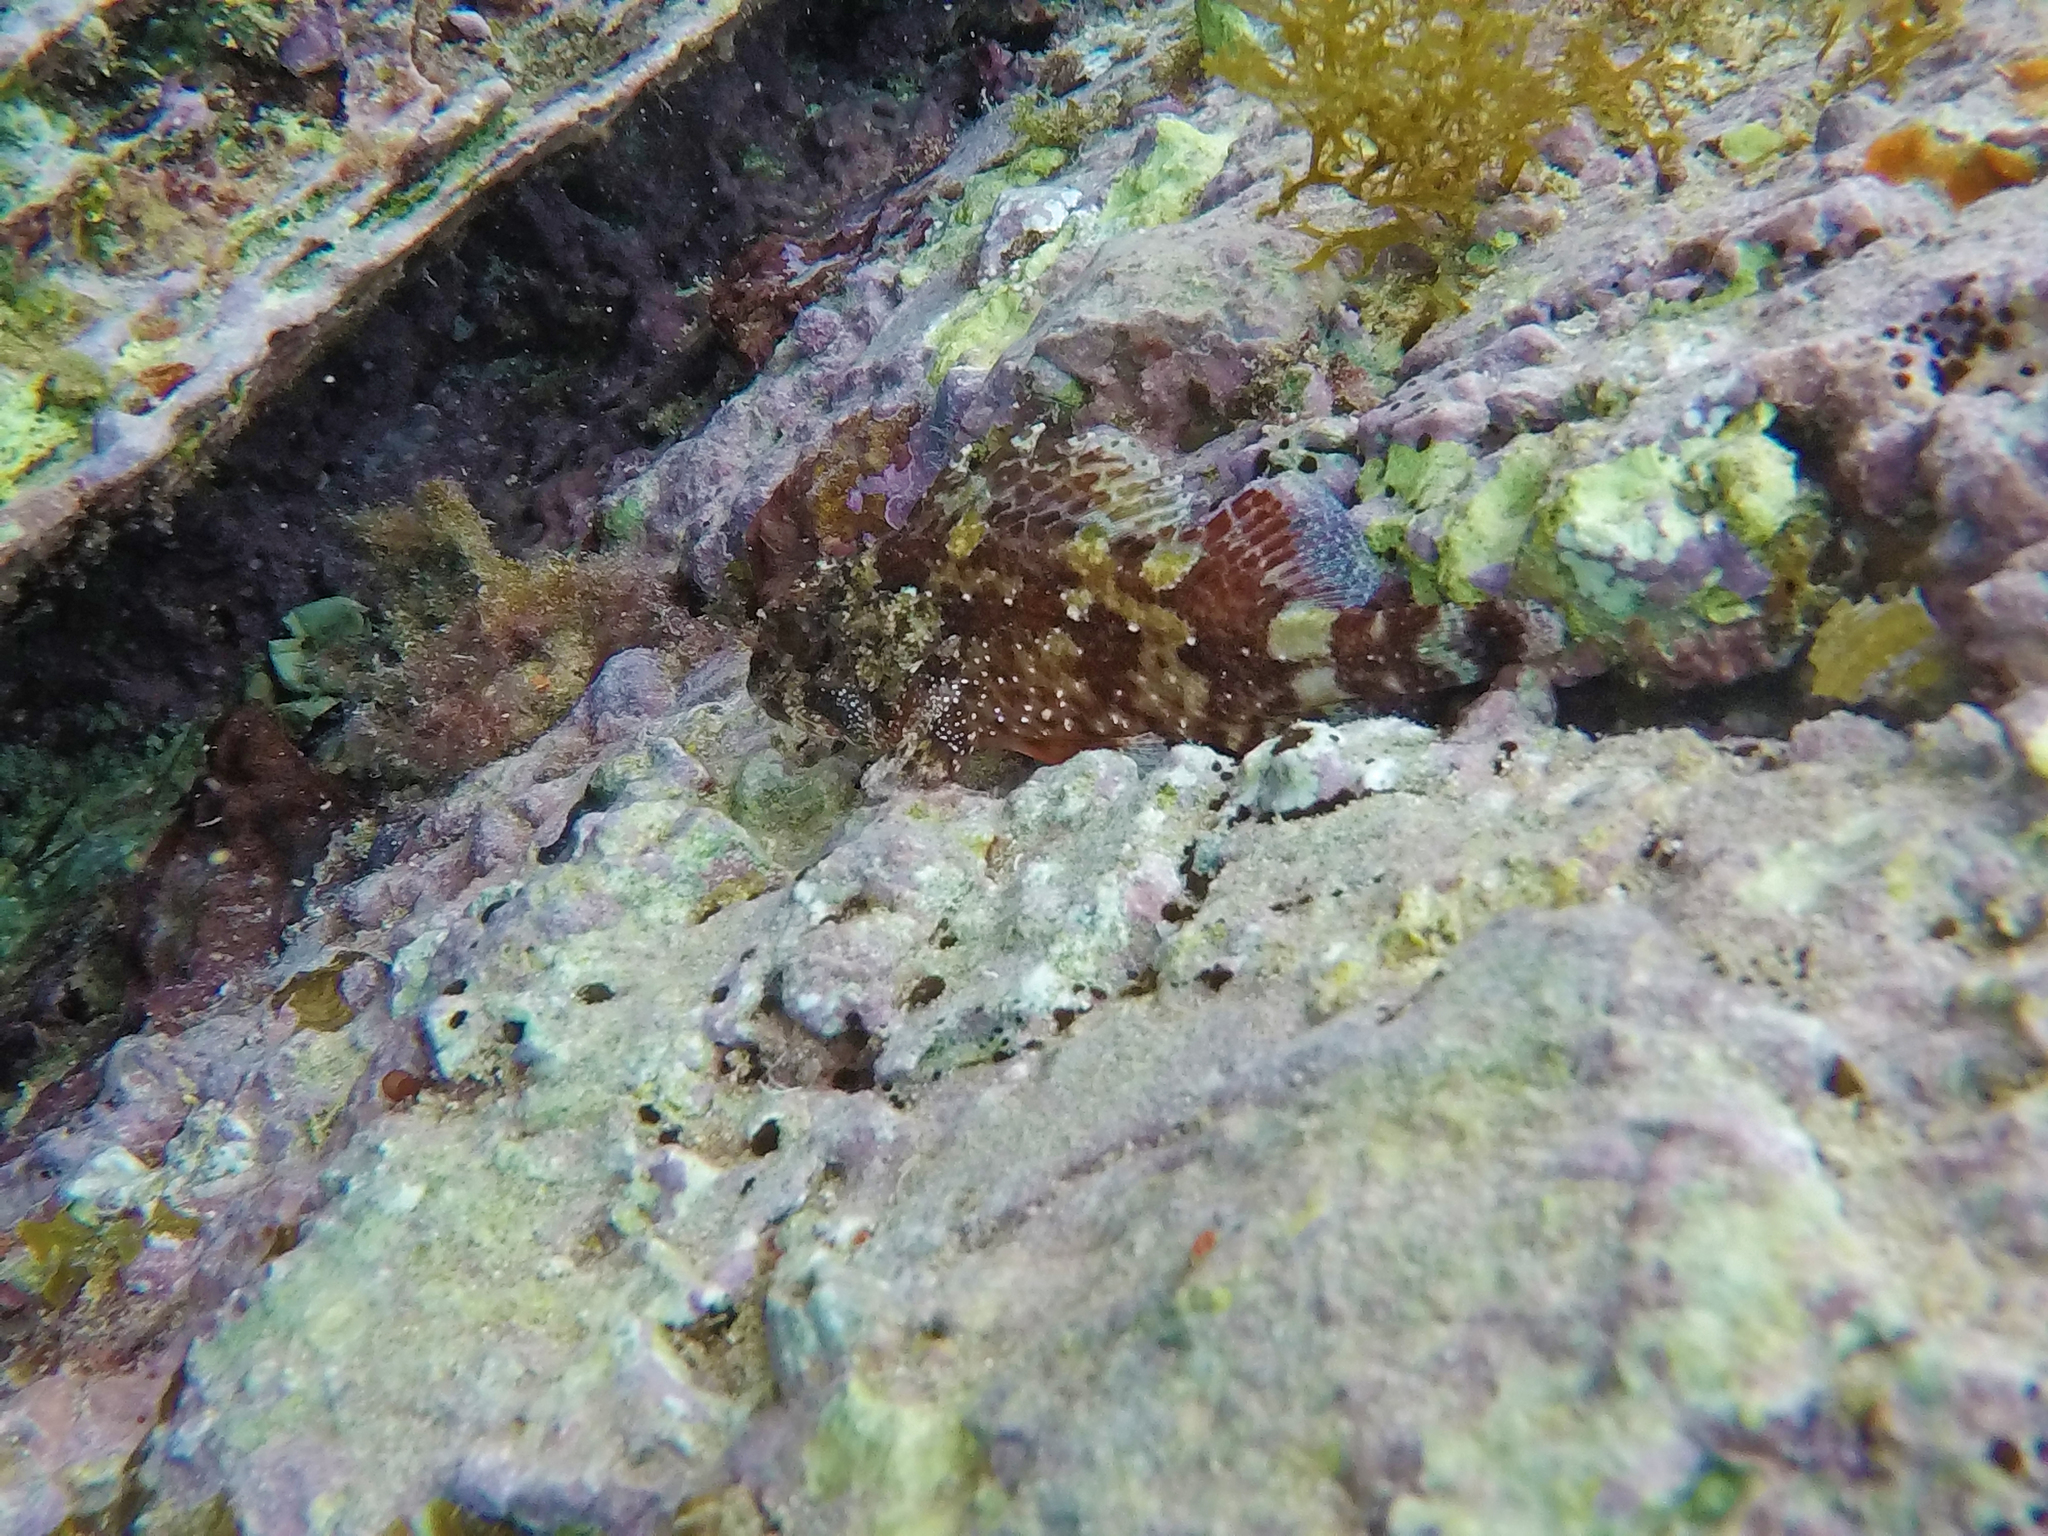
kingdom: Animalia
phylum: Chordata
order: Scorpaeniformes
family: Scorpaenidae
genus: Scorpaena
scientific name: Scorpaena maderensis
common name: Madeira rockfish
